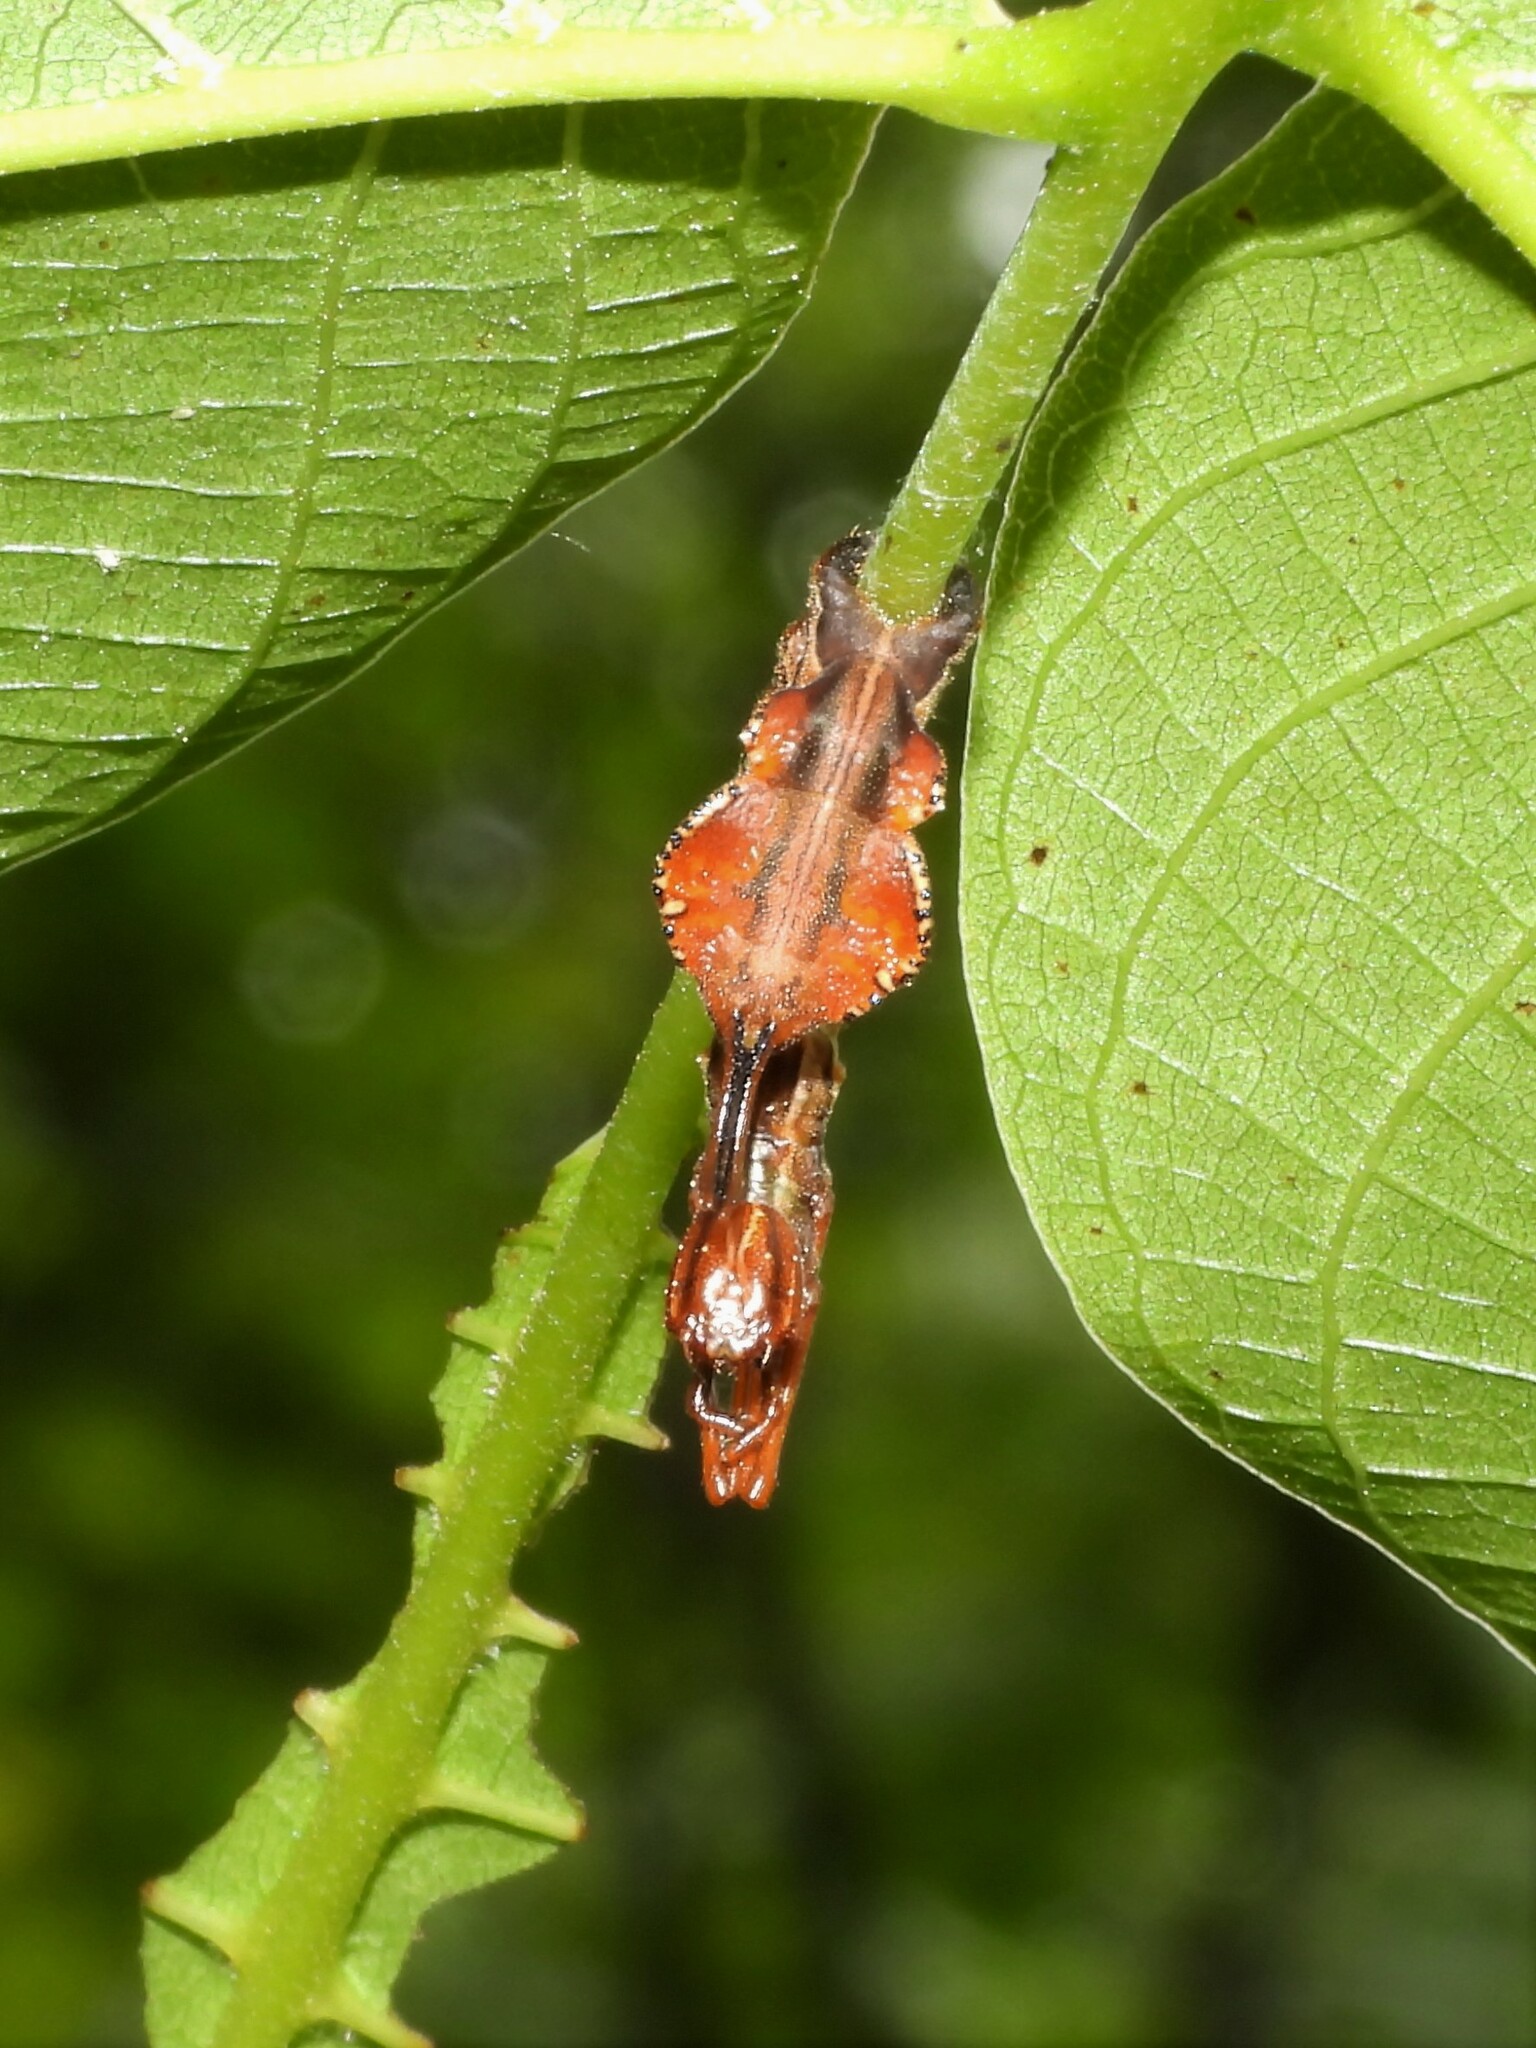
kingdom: Animalia
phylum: Arthropoda
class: Insecta
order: Lepidoptera
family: Notodontidae
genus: Stauropus
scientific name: Stauropus fagi
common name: Lobster moth
